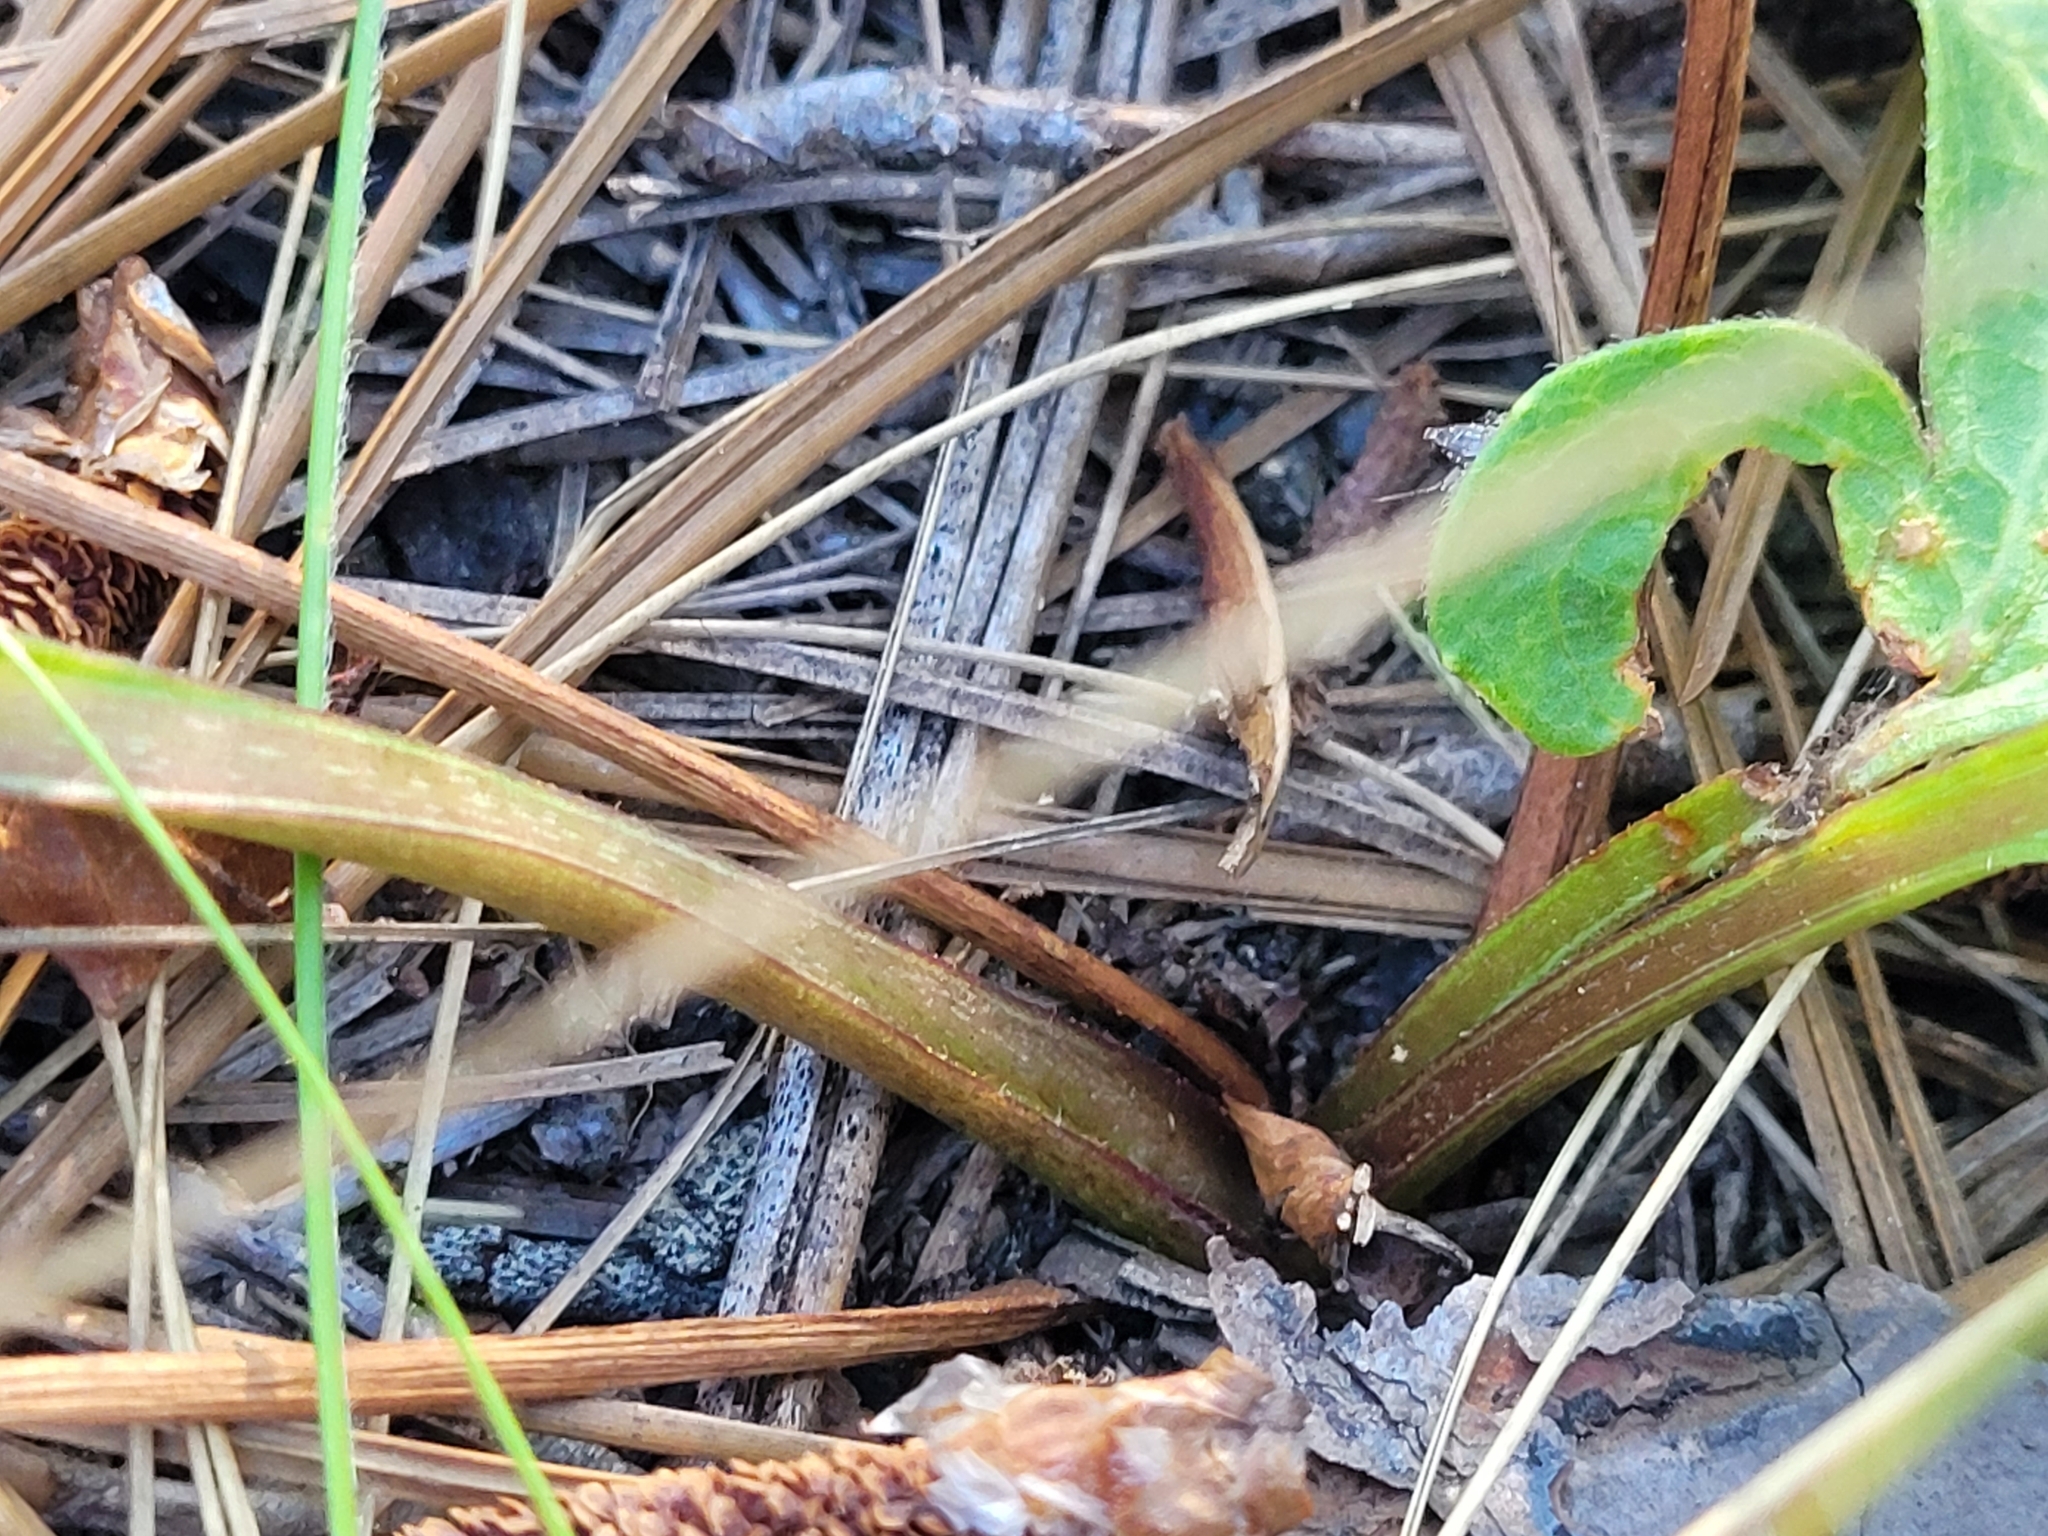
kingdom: Plantae
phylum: Tracheophyta
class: Magnoliopsida
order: Asterales
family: Asteraceae
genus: Silphium
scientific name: Silphium compositum
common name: Lesser basal-leaf rosinweed
